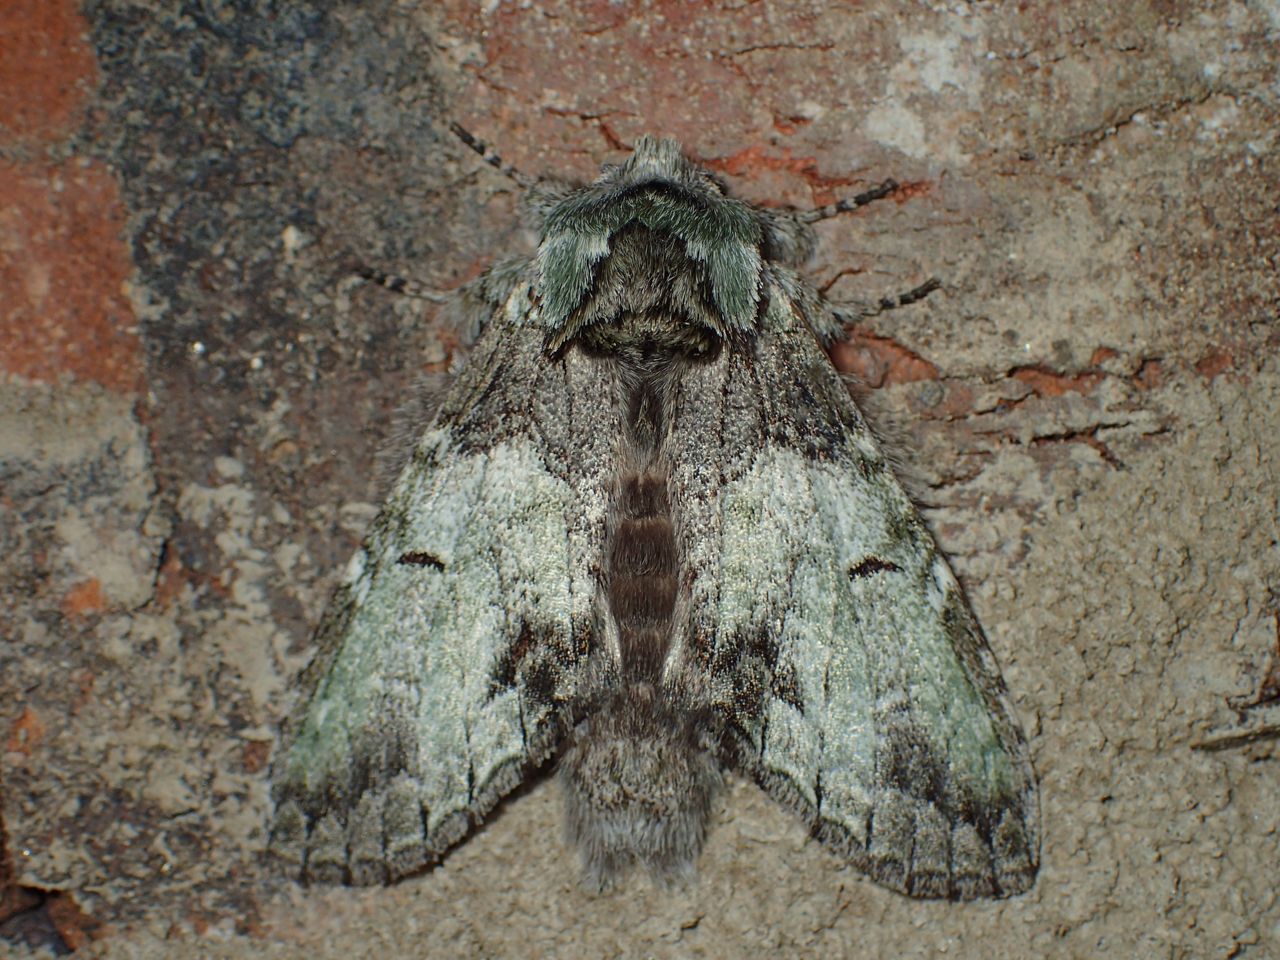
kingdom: Animalia
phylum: Arthropoda
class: Insecta
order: Lepidoptera
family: Notodontidae
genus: Macrurocampa
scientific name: Macrurocampa marthesia
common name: Mottled prominent
